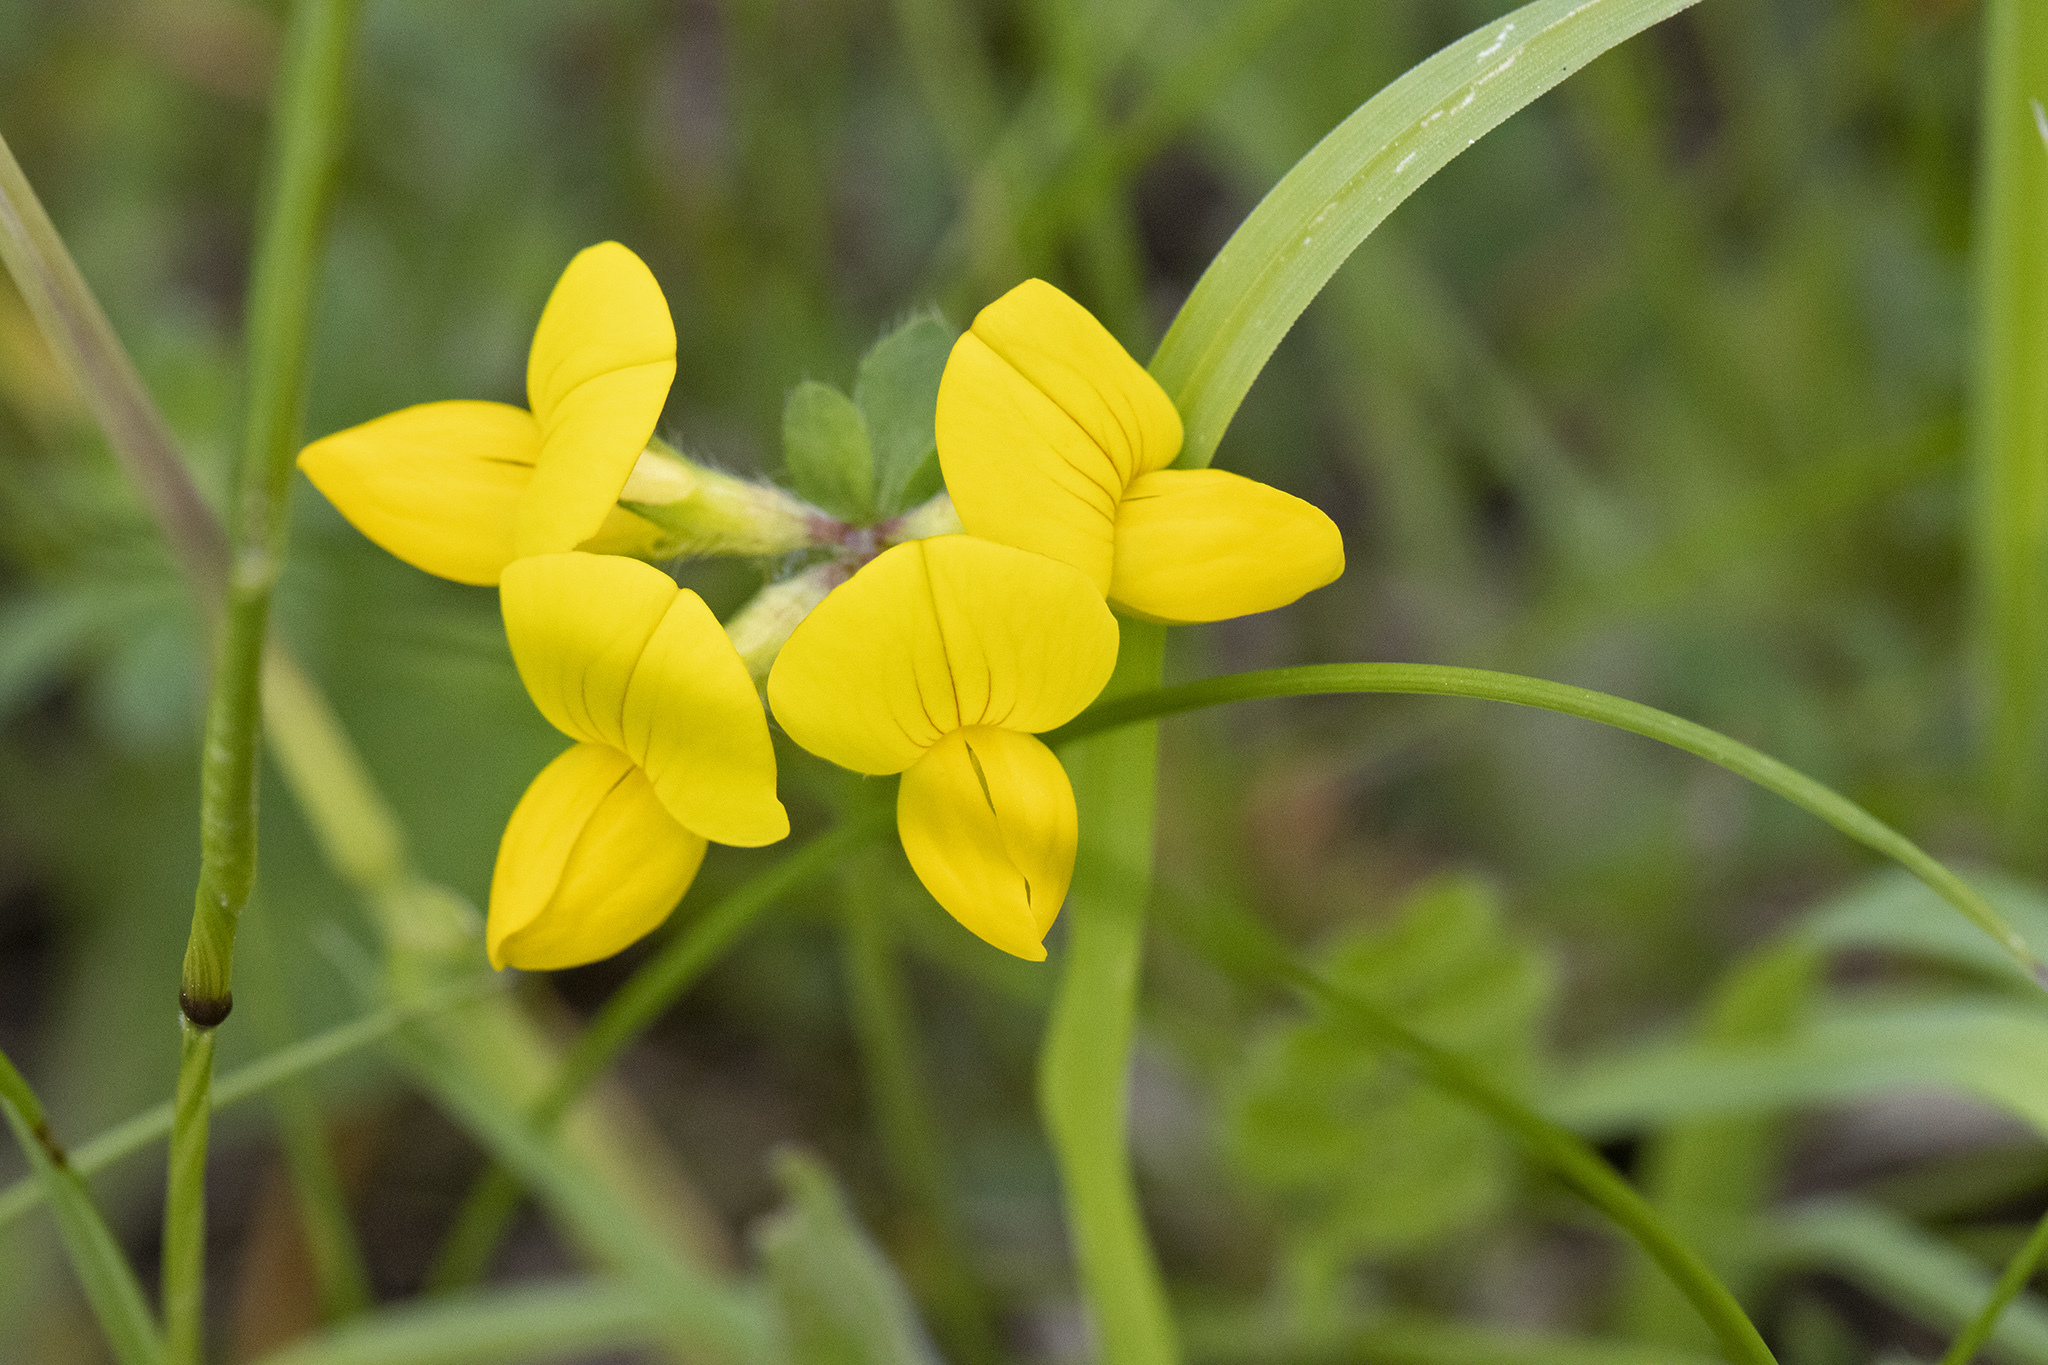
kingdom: Plantae
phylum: Tracheophyta
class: Magnoliopsida
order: Fabales
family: Fabaceae
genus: Lotus
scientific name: Lotus corniculatus
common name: Common bird's-foot-trefoil
